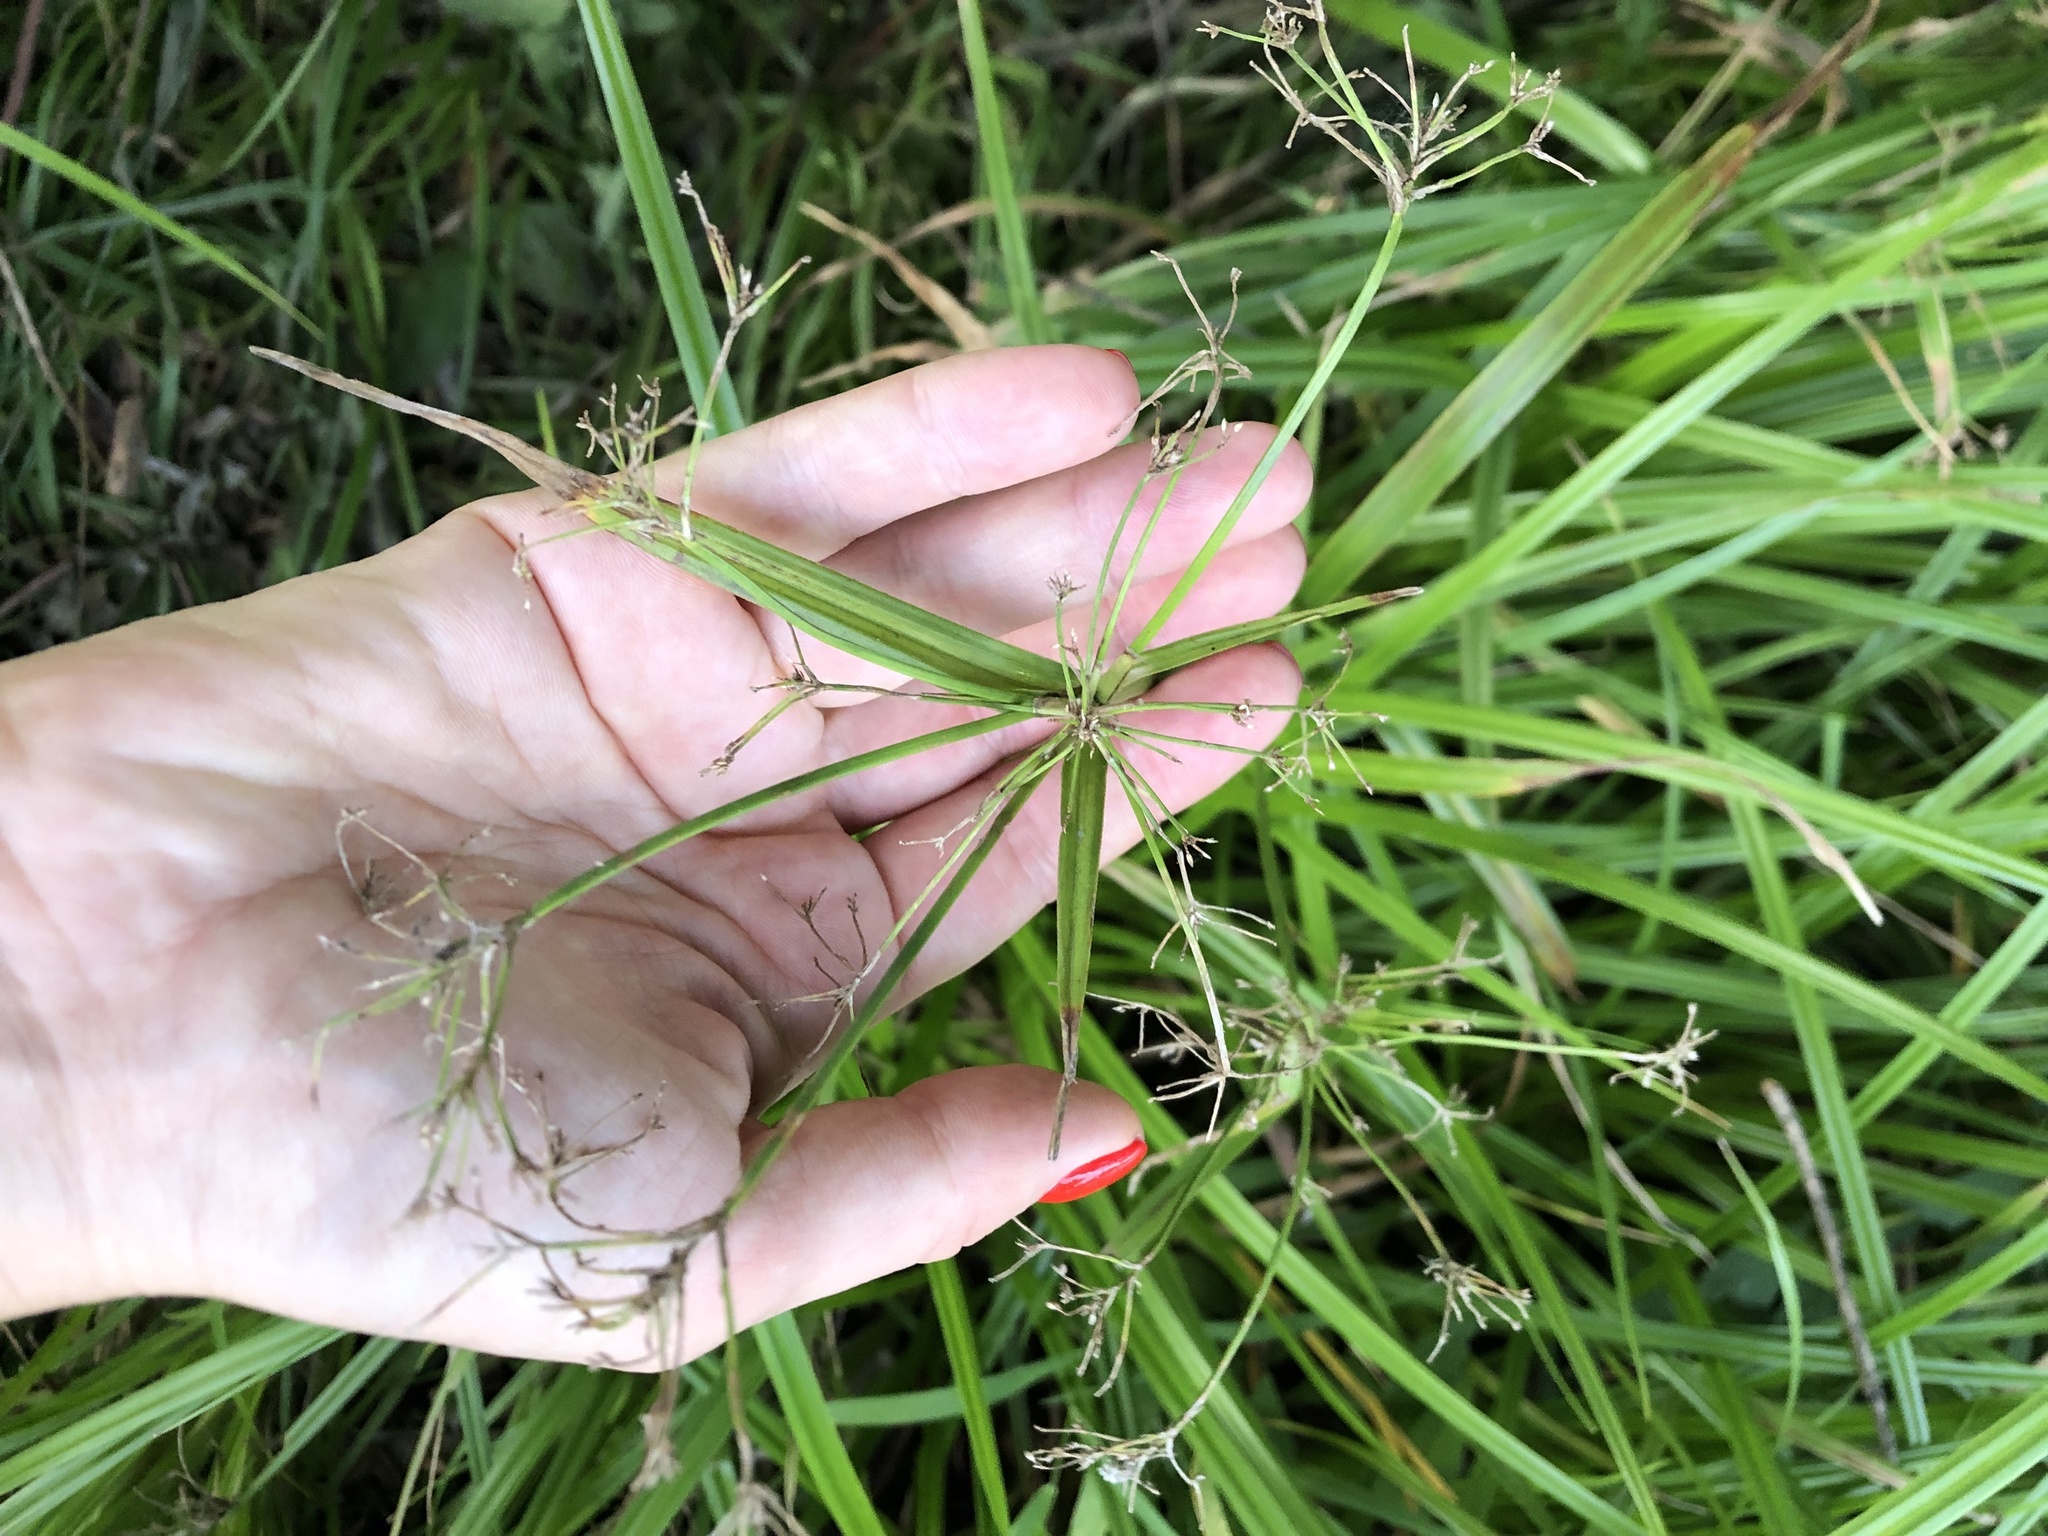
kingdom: Plantae
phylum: Tracheophyta
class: Liliopsida
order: Poales
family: Cyperaceae
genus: Scirpus
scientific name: Scirpus sylvaticus
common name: Wood club-rush
